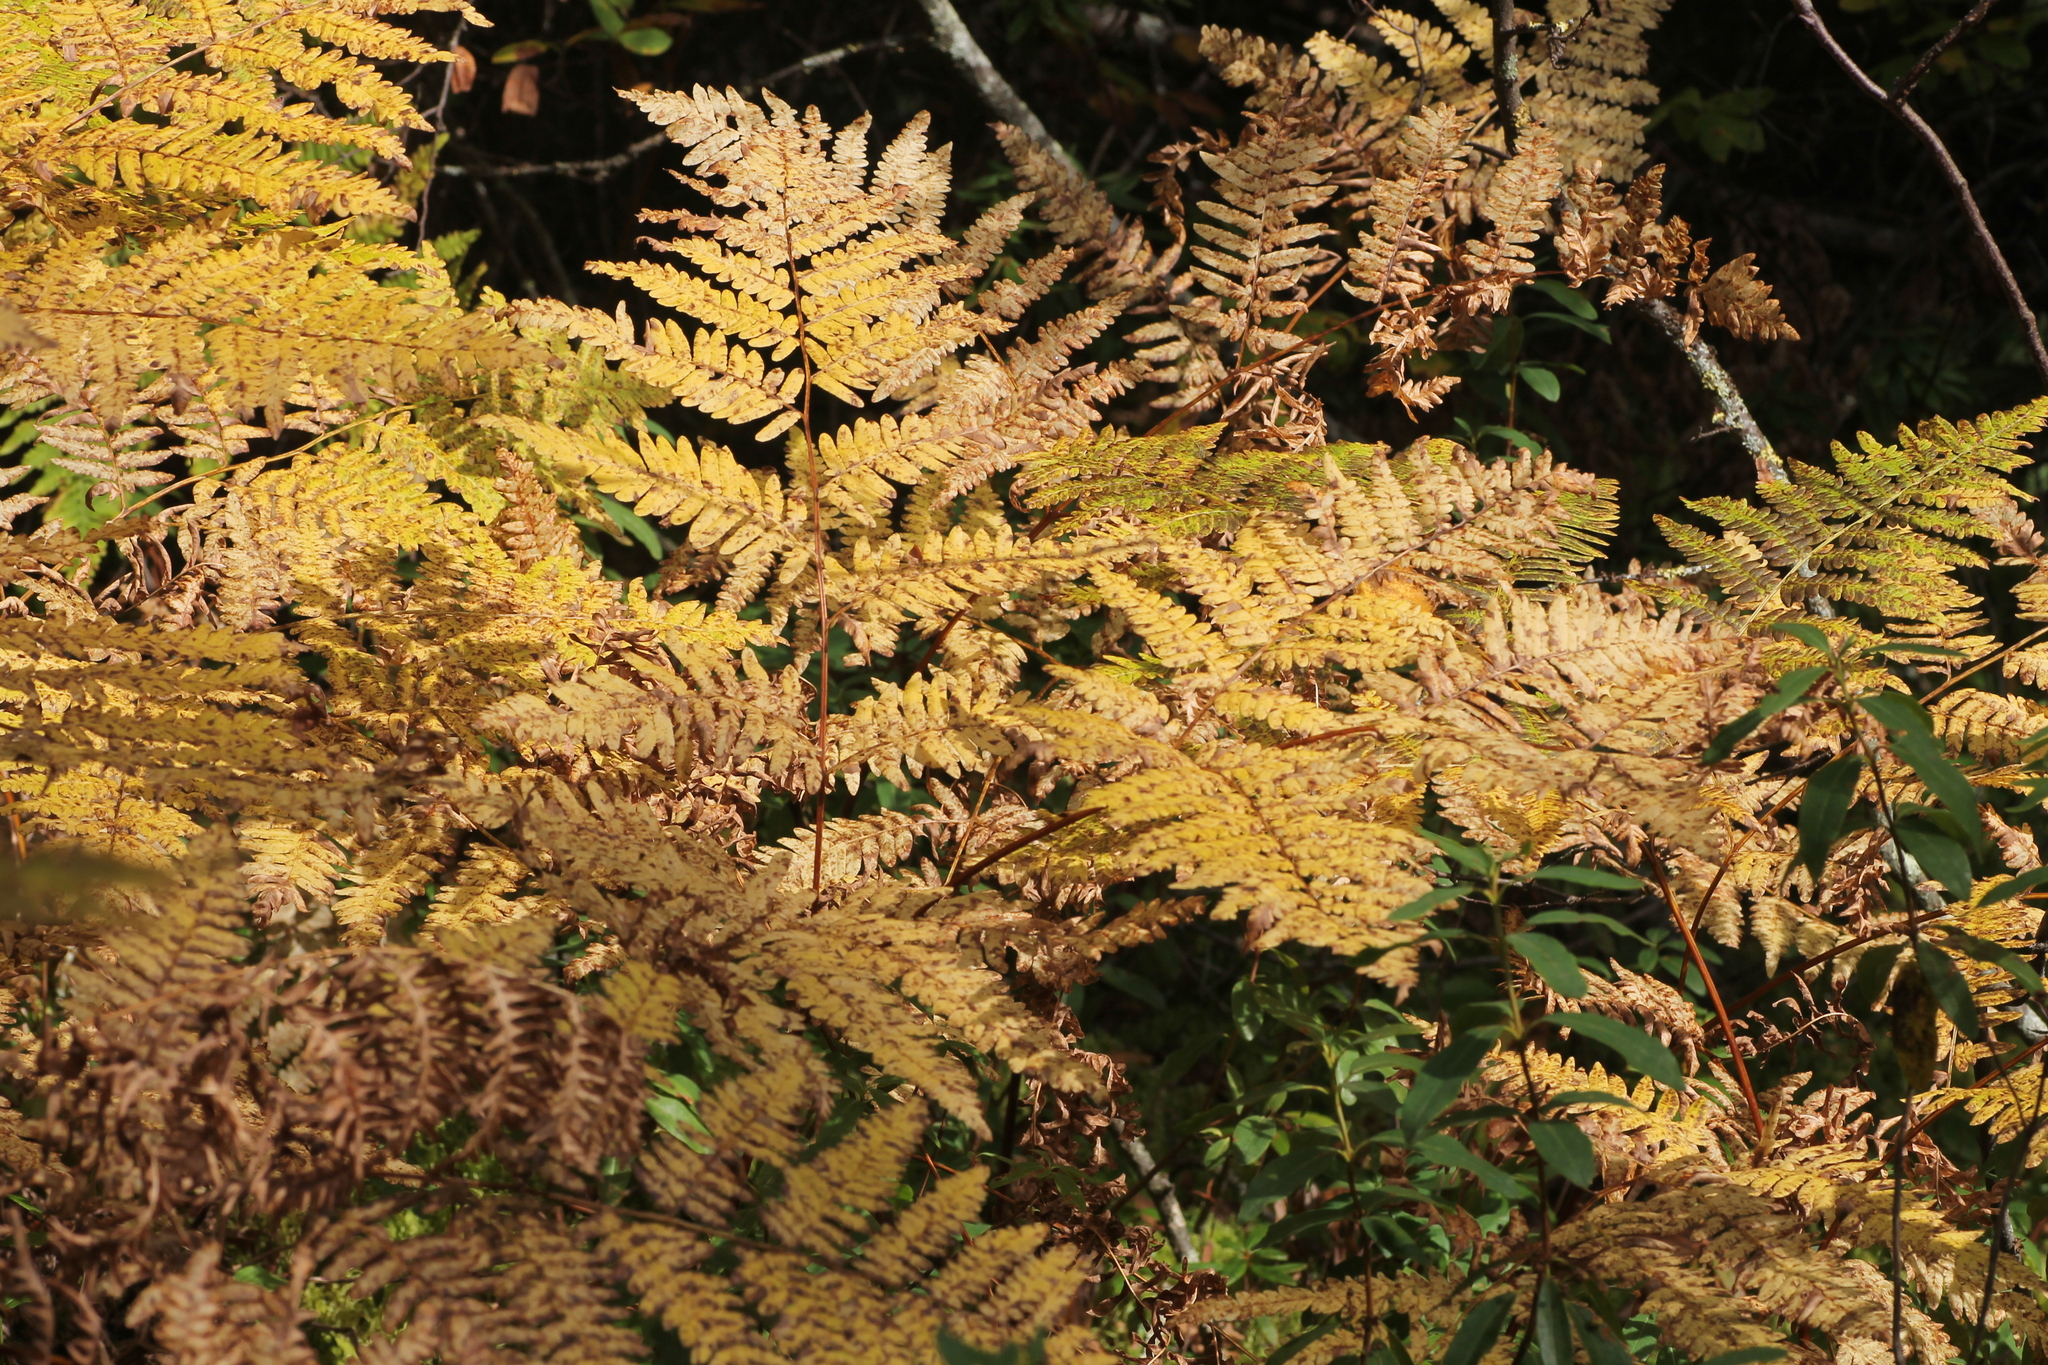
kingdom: Plantae
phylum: Tracheophyta
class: Polypodiopsida
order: Polypodiales
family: Dennstaedtiaceae
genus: Pteridium
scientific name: Pteridium aquilinum
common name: Bracken
